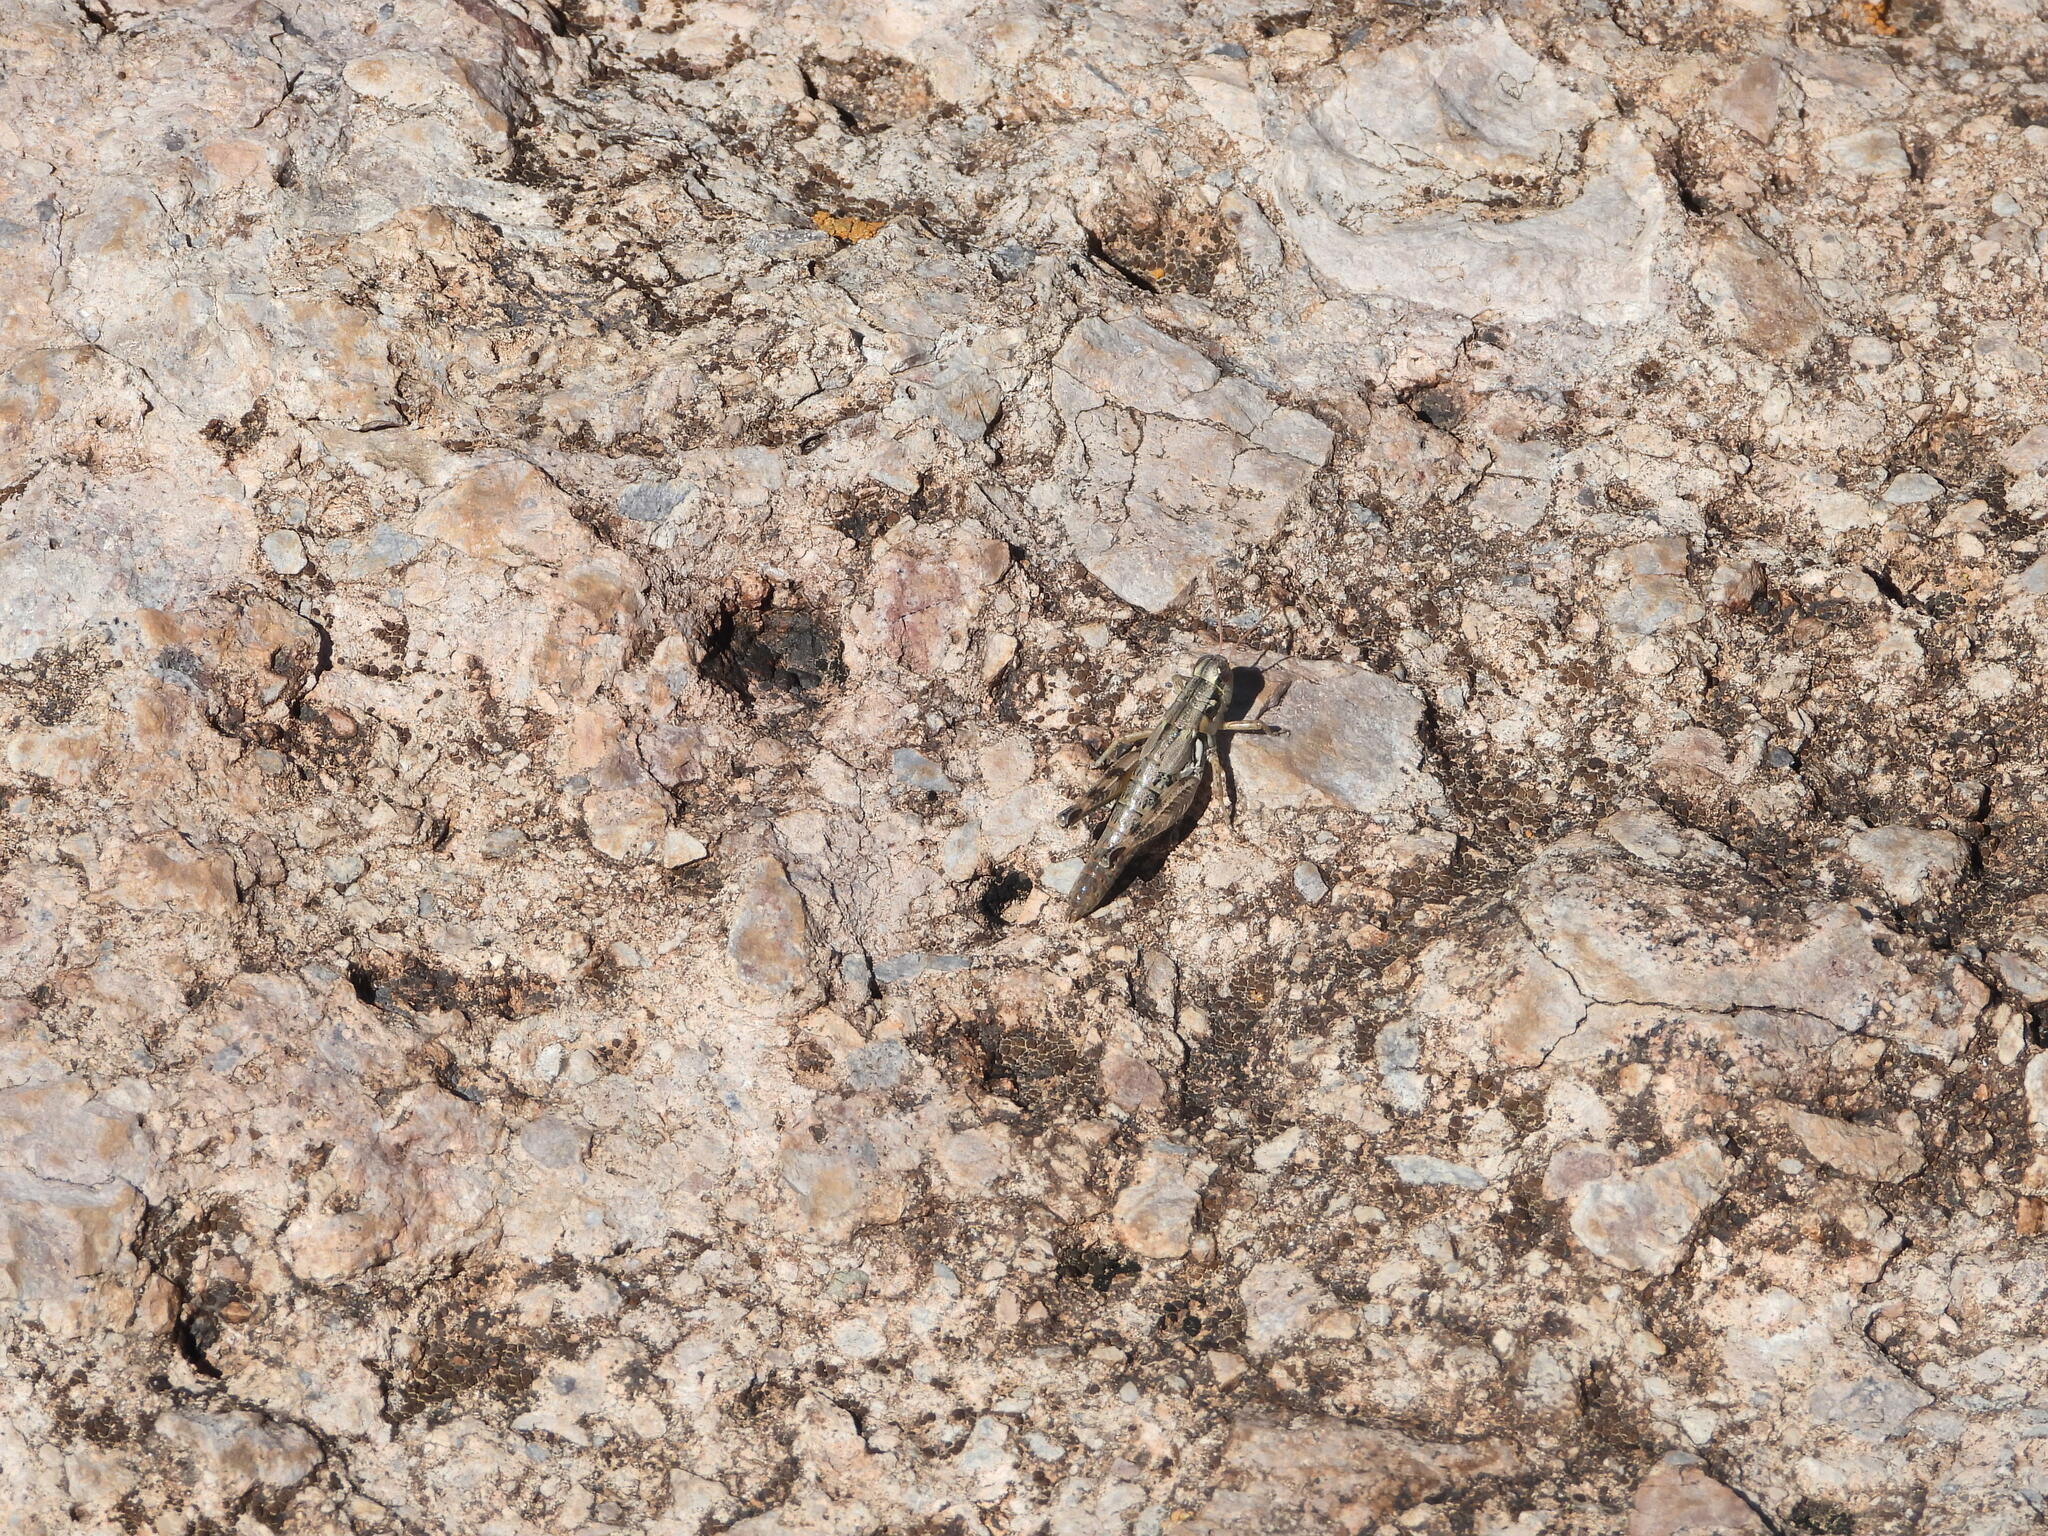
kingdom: Animalia
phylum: Arthropoda
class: Insecta
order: Orthoptera
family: Acrididae
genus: Melanoplus
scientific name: Melanoplus aridus
